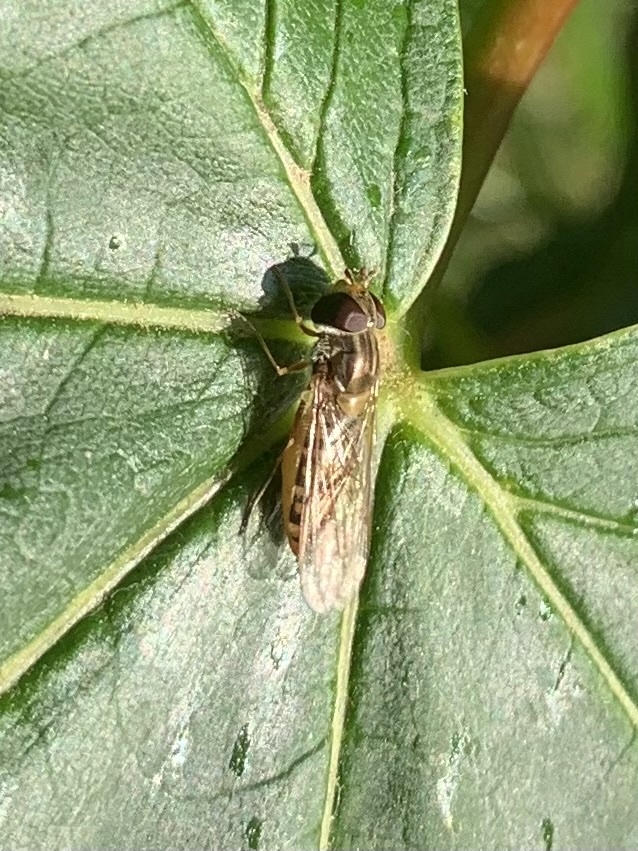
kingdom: Animalia
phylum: Arthropoda
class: Insecta
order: Diptera
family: Syrphidae
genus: Episyrphus
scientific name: Episyrphus balteatus
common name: Marmalade hoverfly
